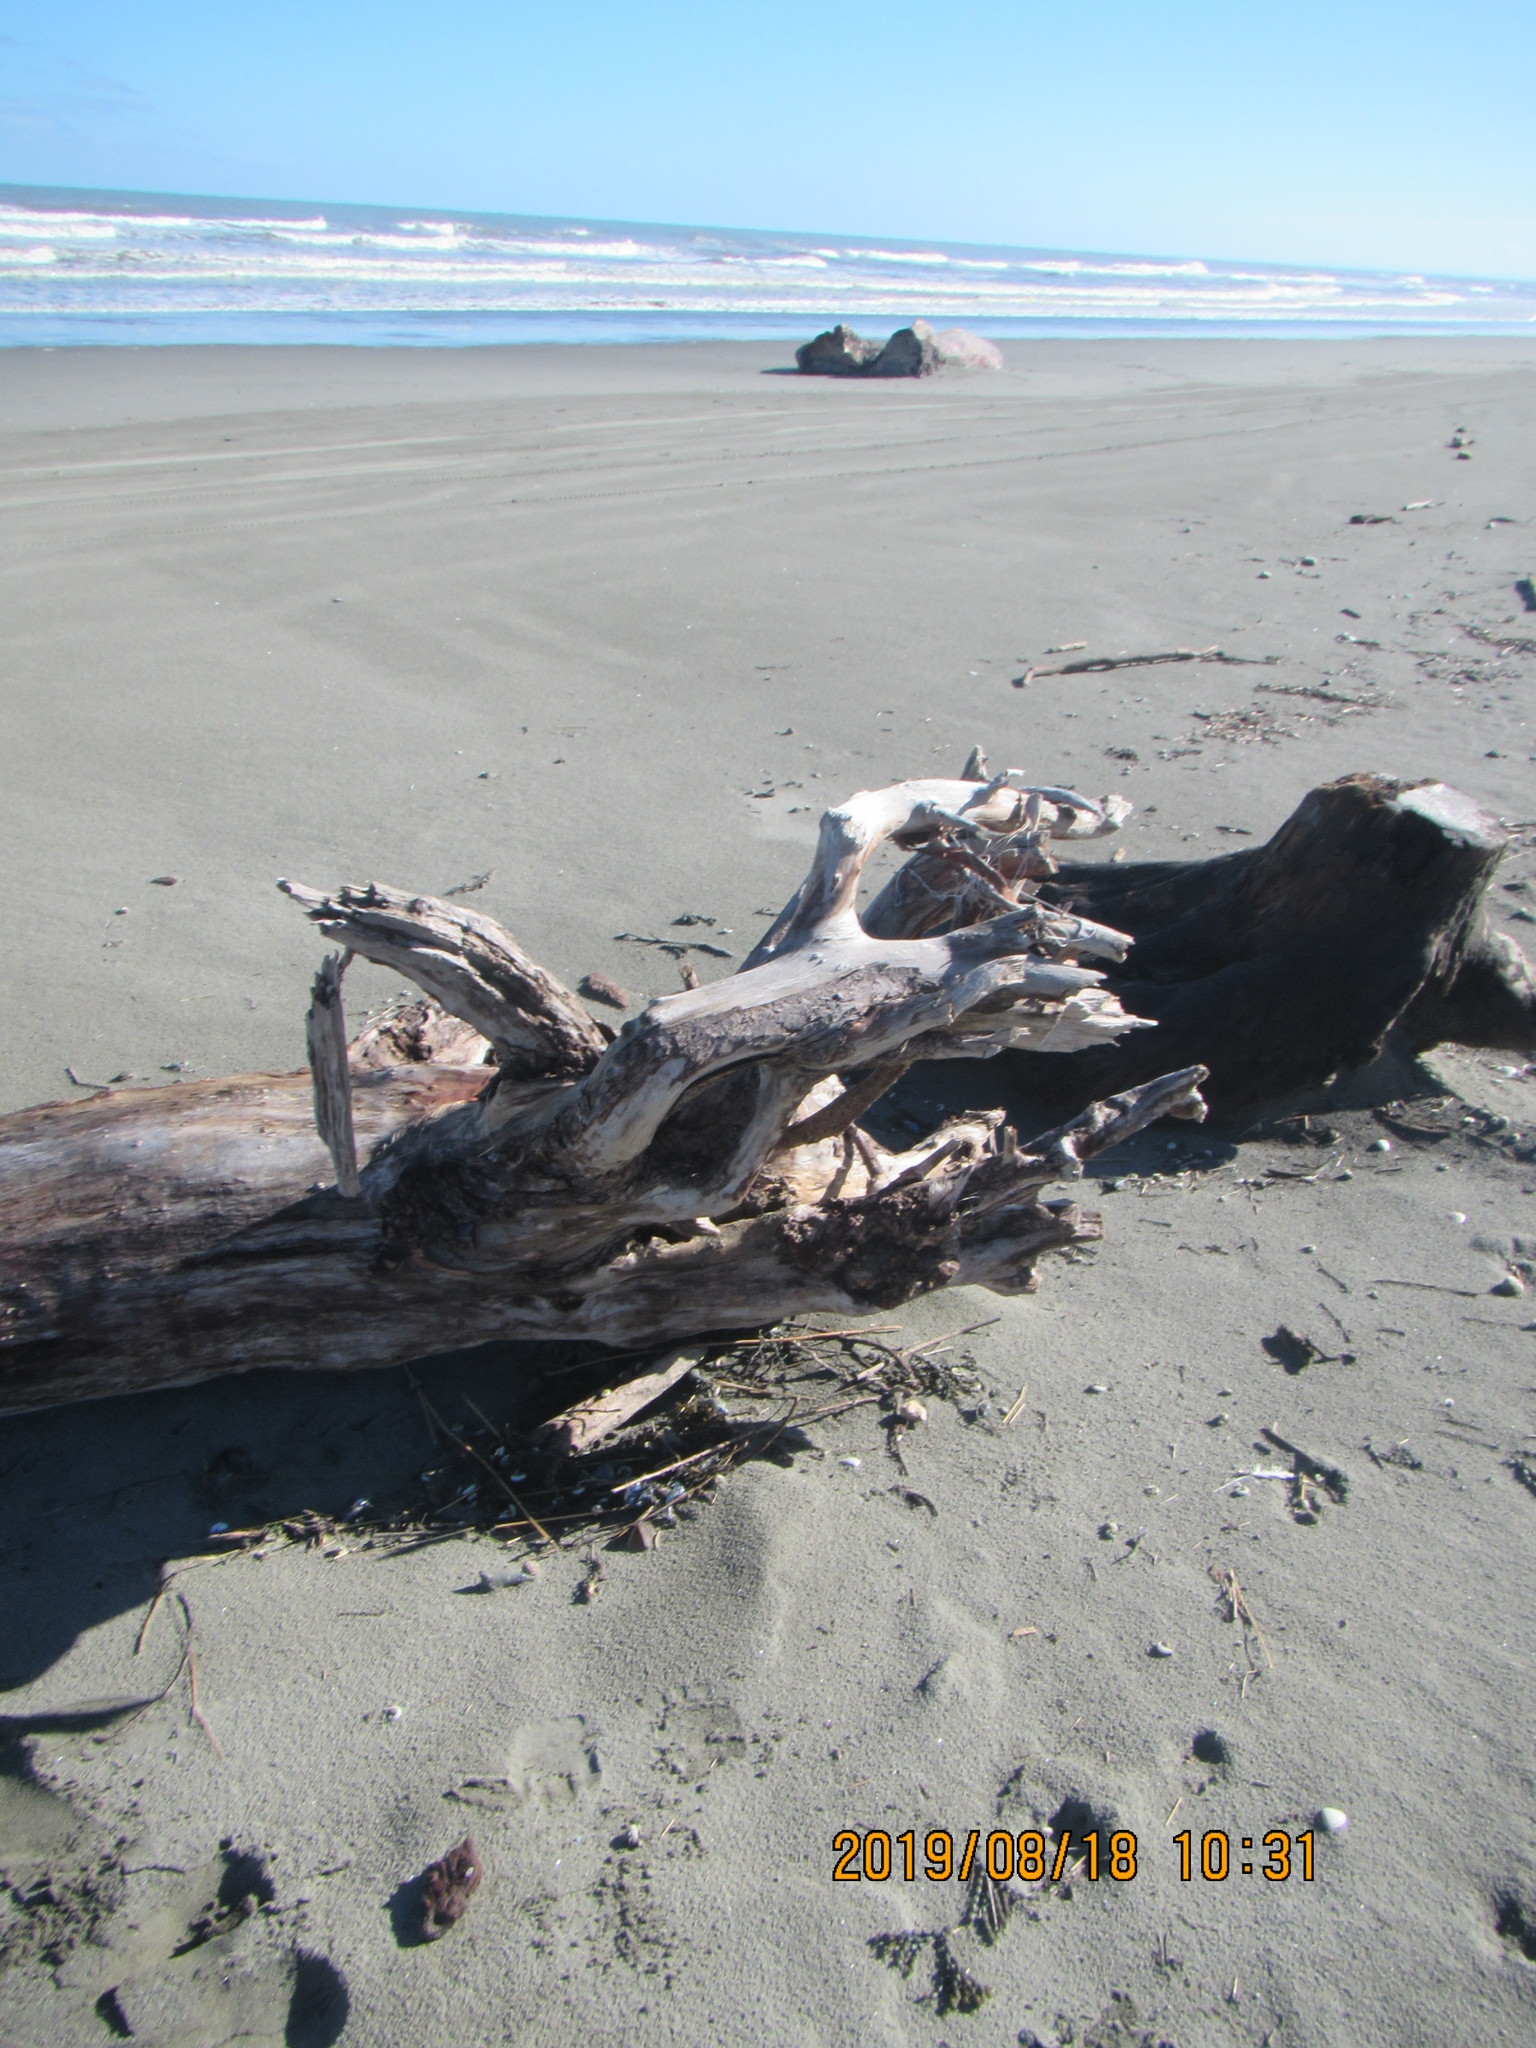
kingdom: Animalia
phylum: Cnidaria
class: Hydrozoa
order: Siphonophorae
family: Physaliidae
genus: Physalia
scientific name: Physalia physalis
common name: Portuguese man-of-war
